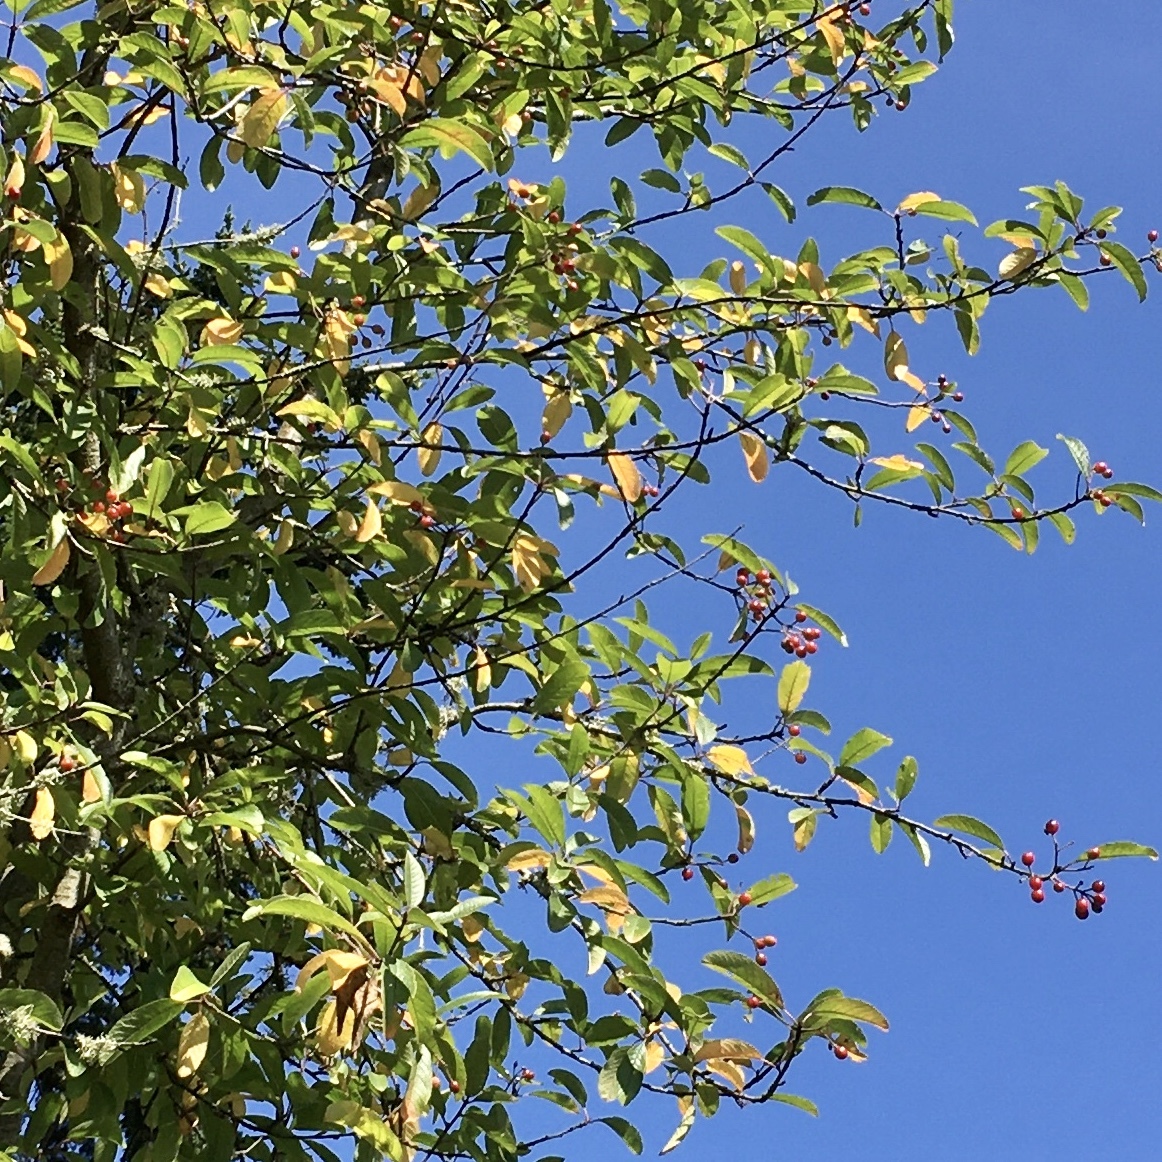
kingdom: Plantae
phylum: Tracheophyta
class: Magnoliopsida
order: Rosales
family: Rosaceae
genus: Prunus
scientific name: Prunus emarginata
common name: Bitter cherry
